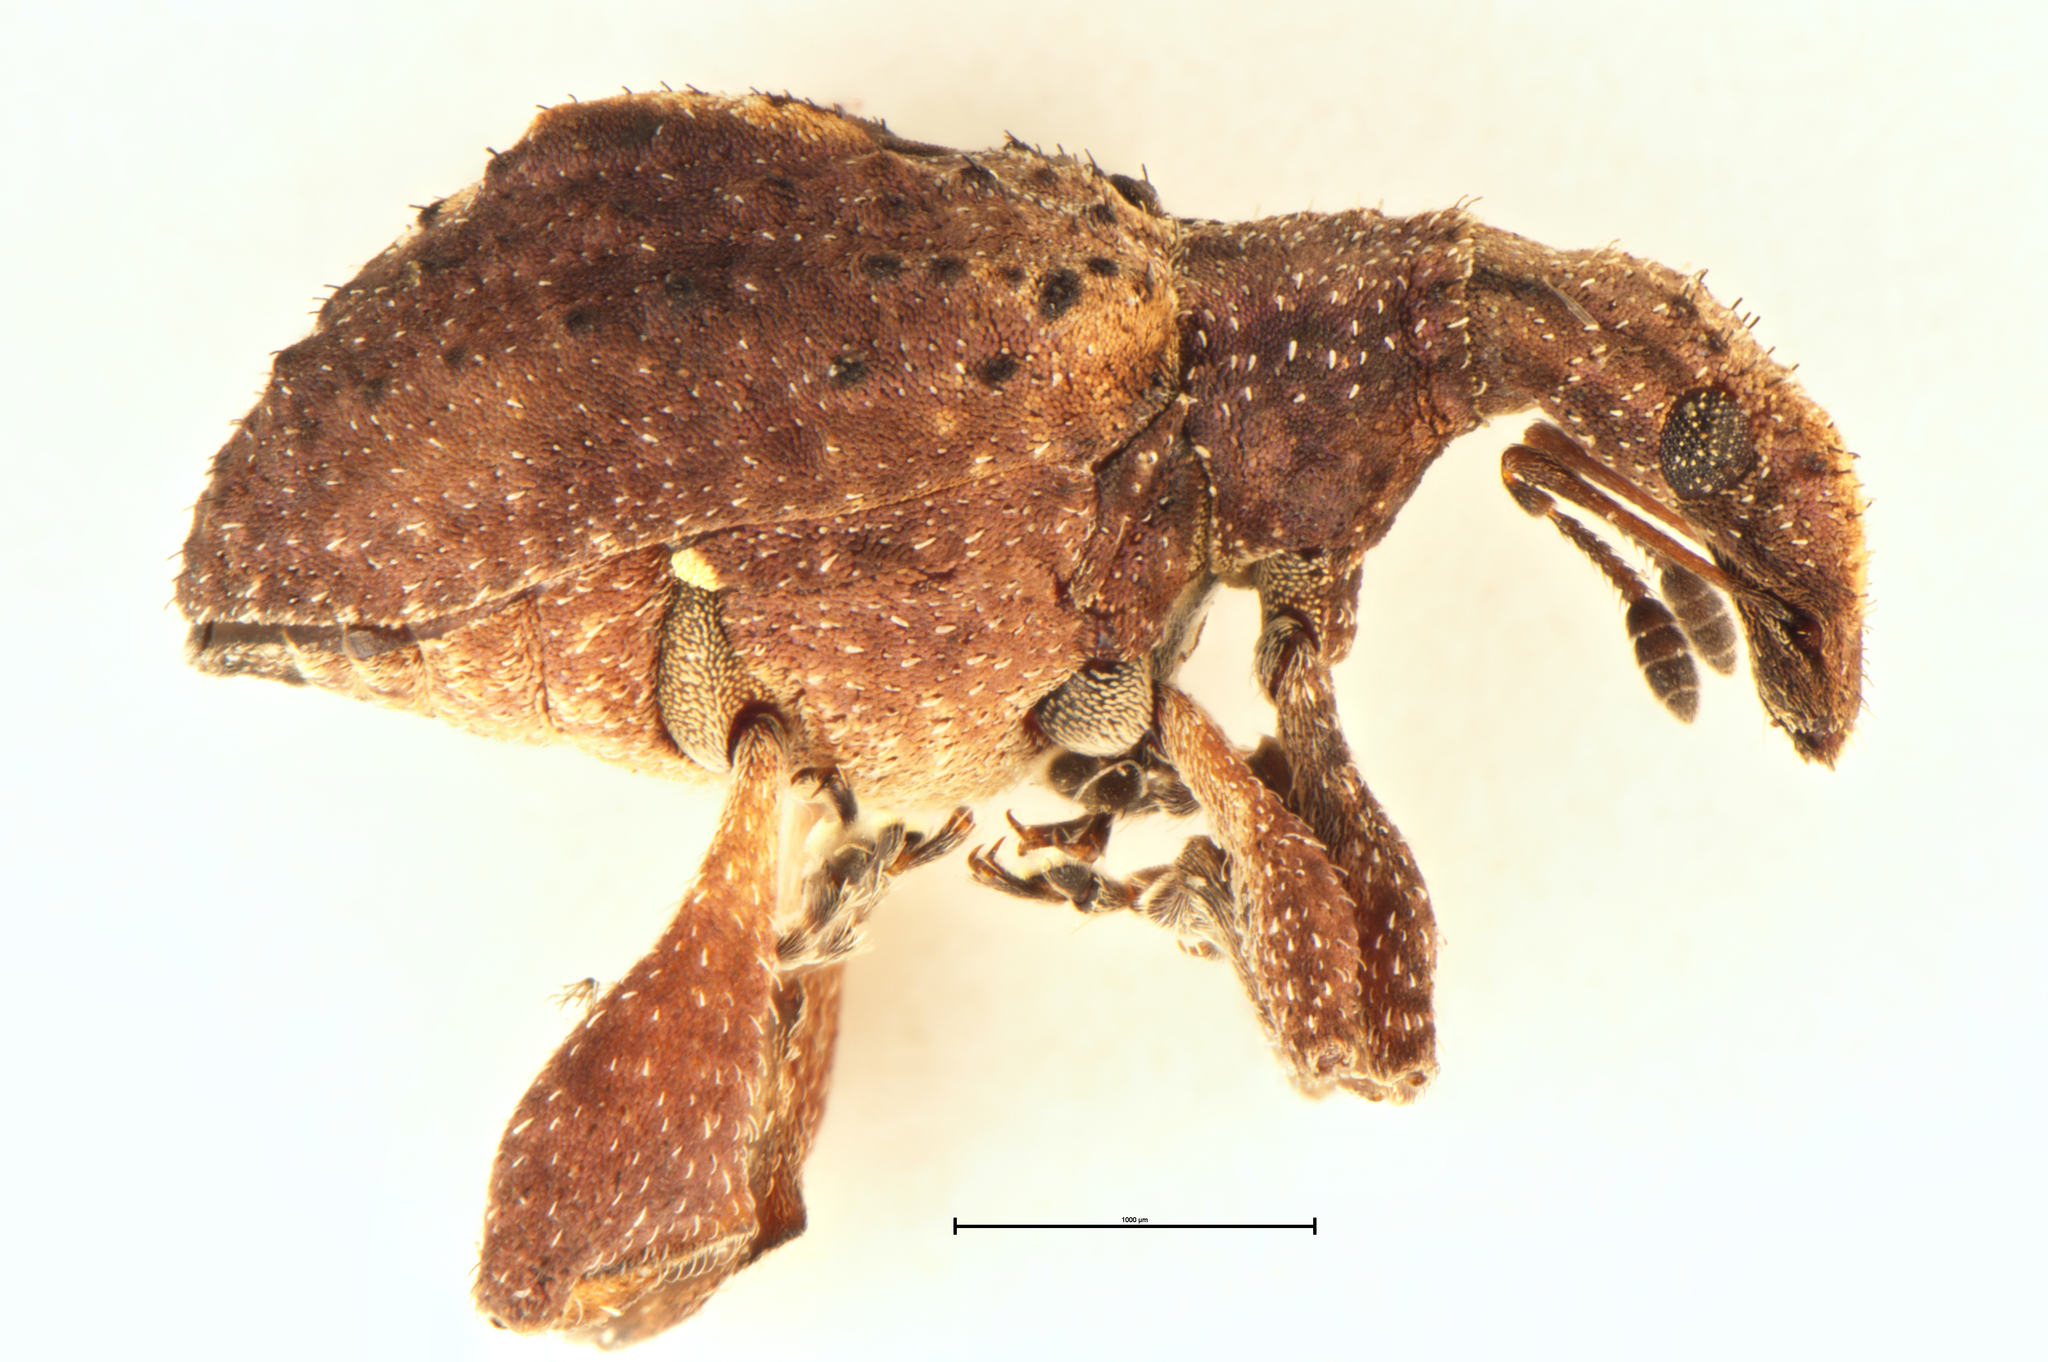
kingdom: Animalia
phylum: Arthropoda
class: Insecta
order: Coleoptera
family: Curculionidae
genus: Stephanorrhynchus
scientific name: Stephanorrhynchus crassus
